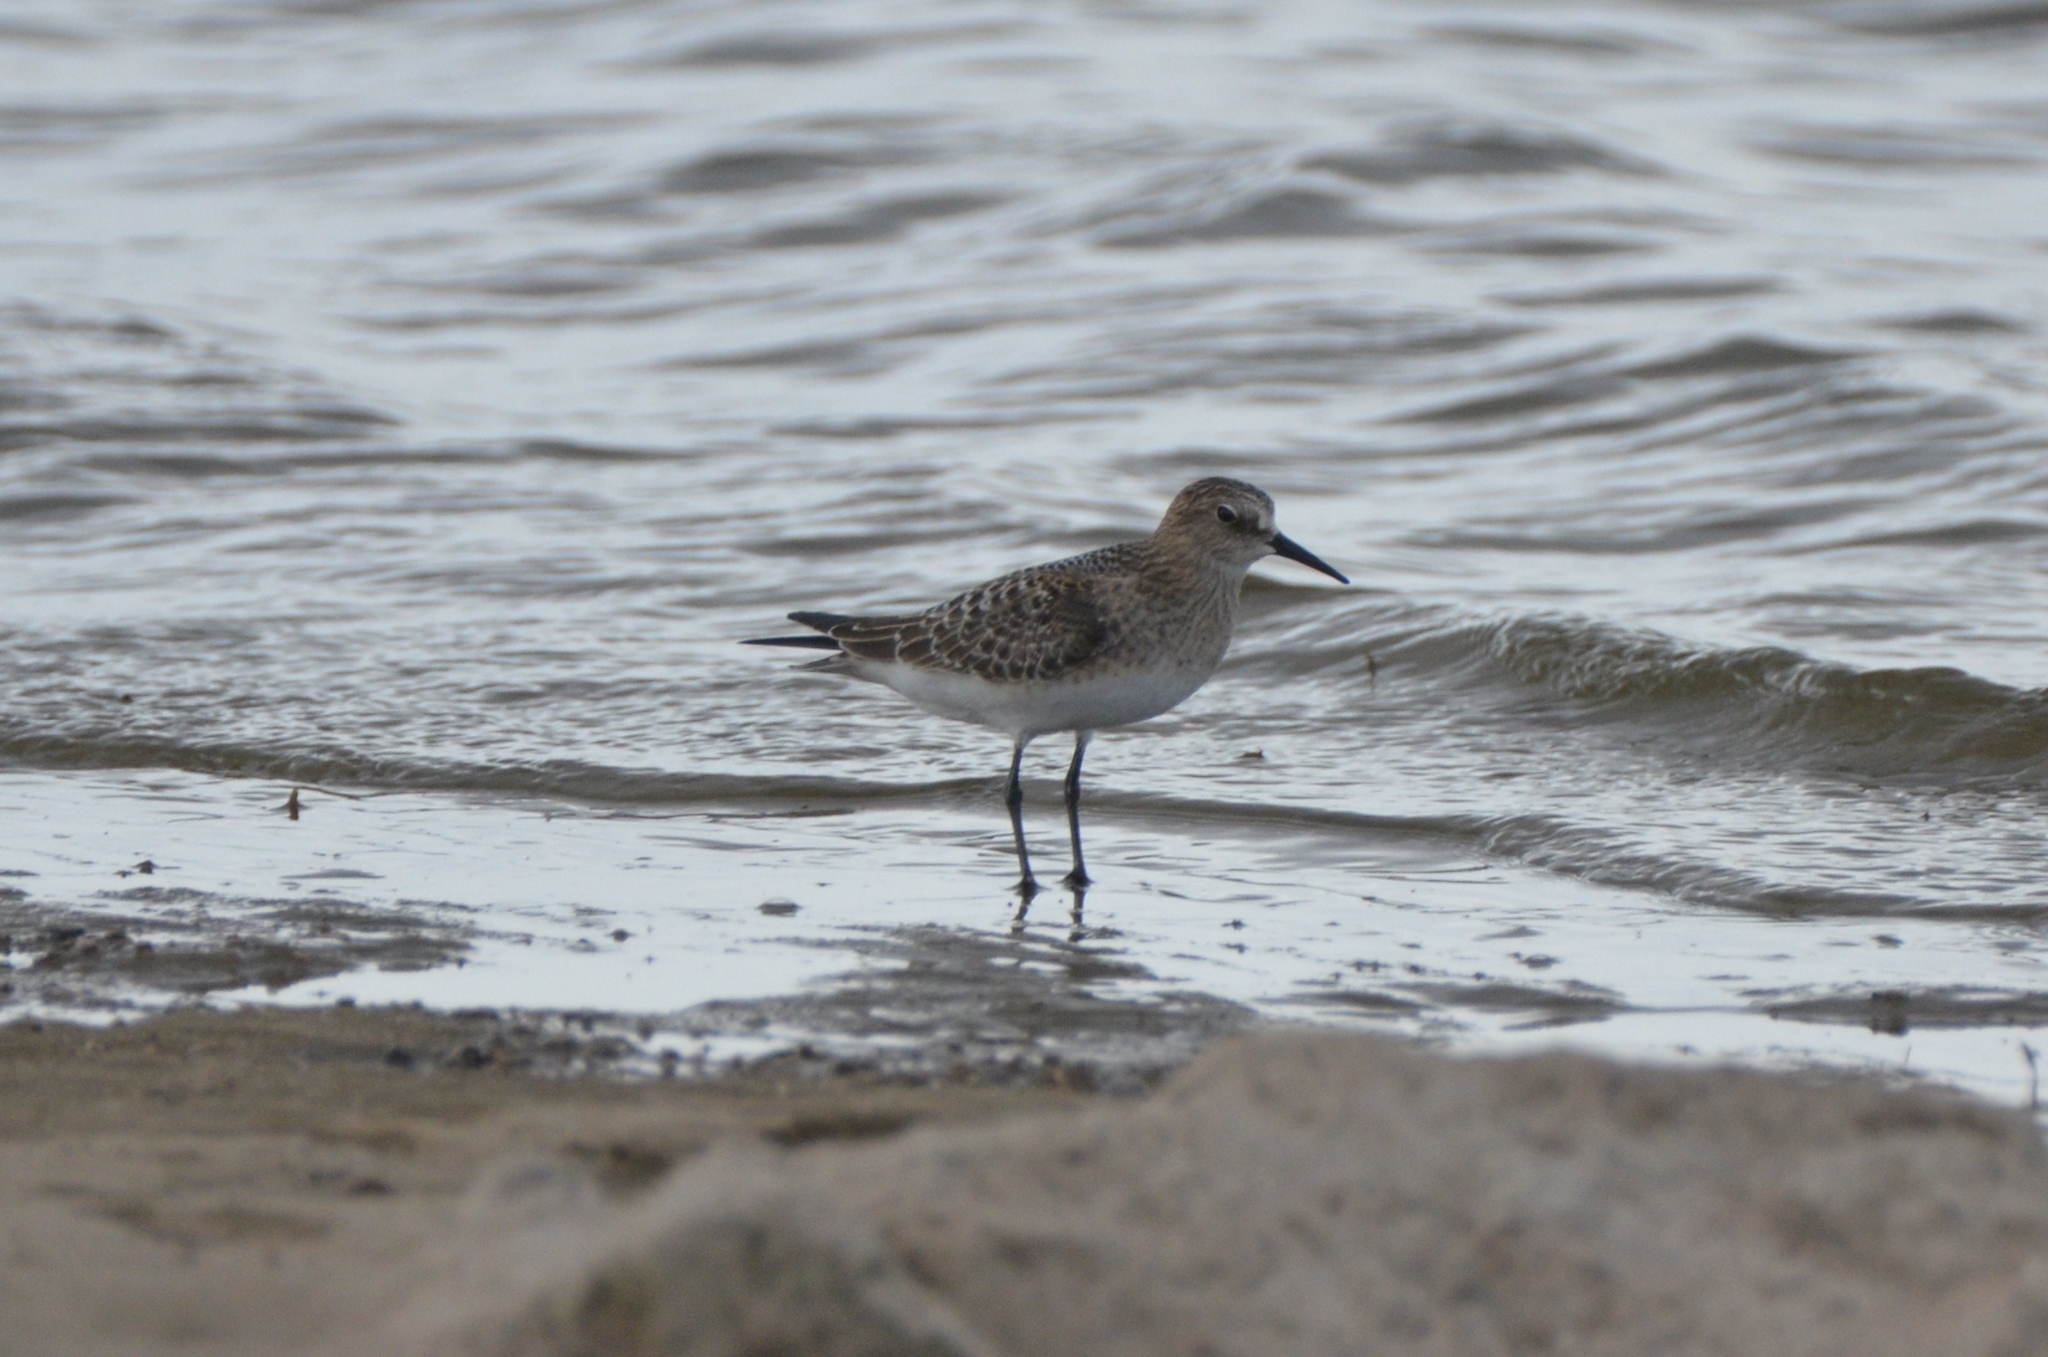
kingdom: Animalia
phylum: Chordata
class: Aves
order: Charadriiformes
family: Scolopacidae
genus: Calidris
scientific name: Calidris bairdii
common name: Baird's sandpiper
